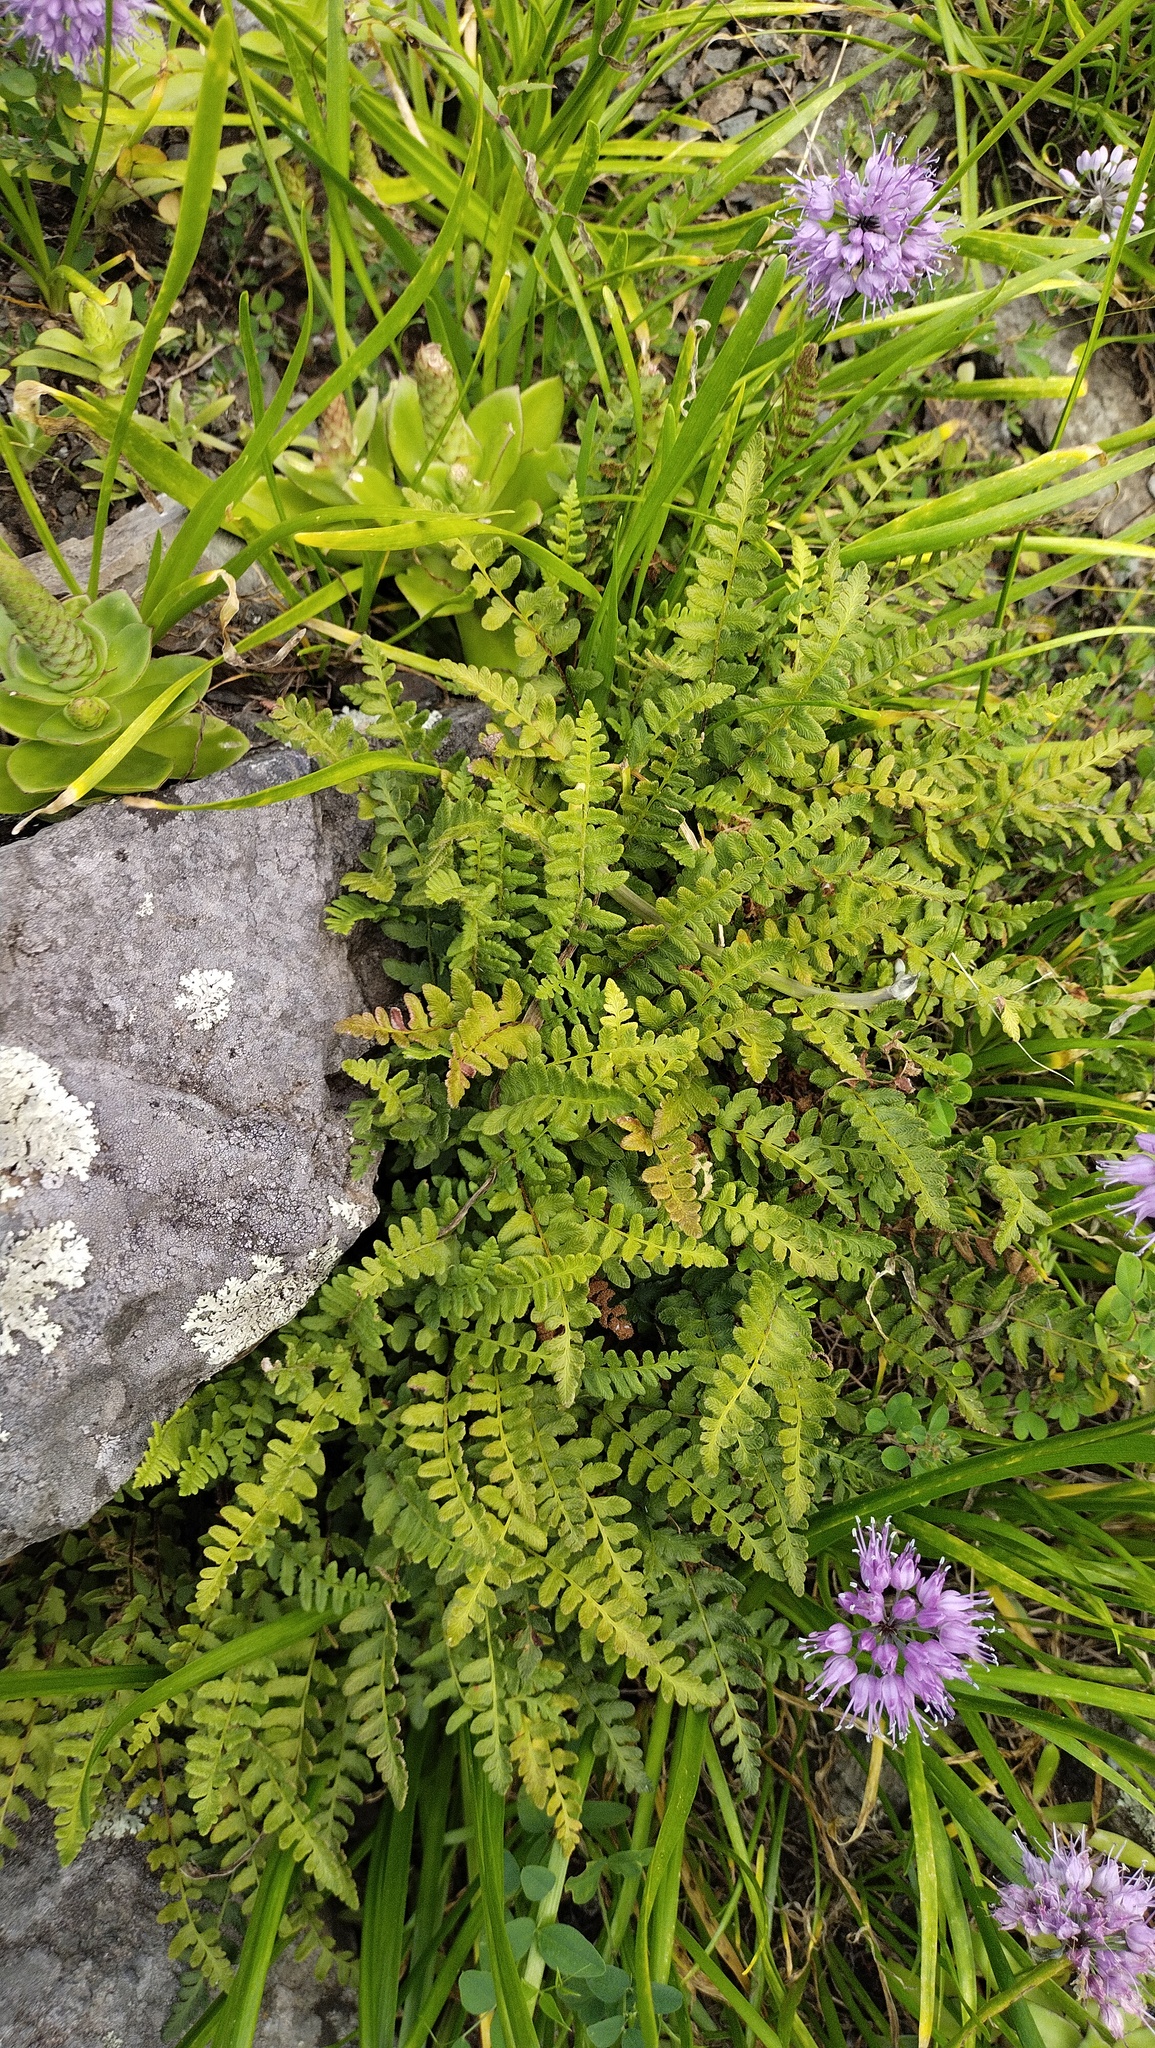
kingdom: Plantae
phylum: Tracheophyta
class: Polypodiopsida
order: Polypodiales
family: Woodsiaceae
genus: Woodsia
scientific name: Woodsia subcordata
